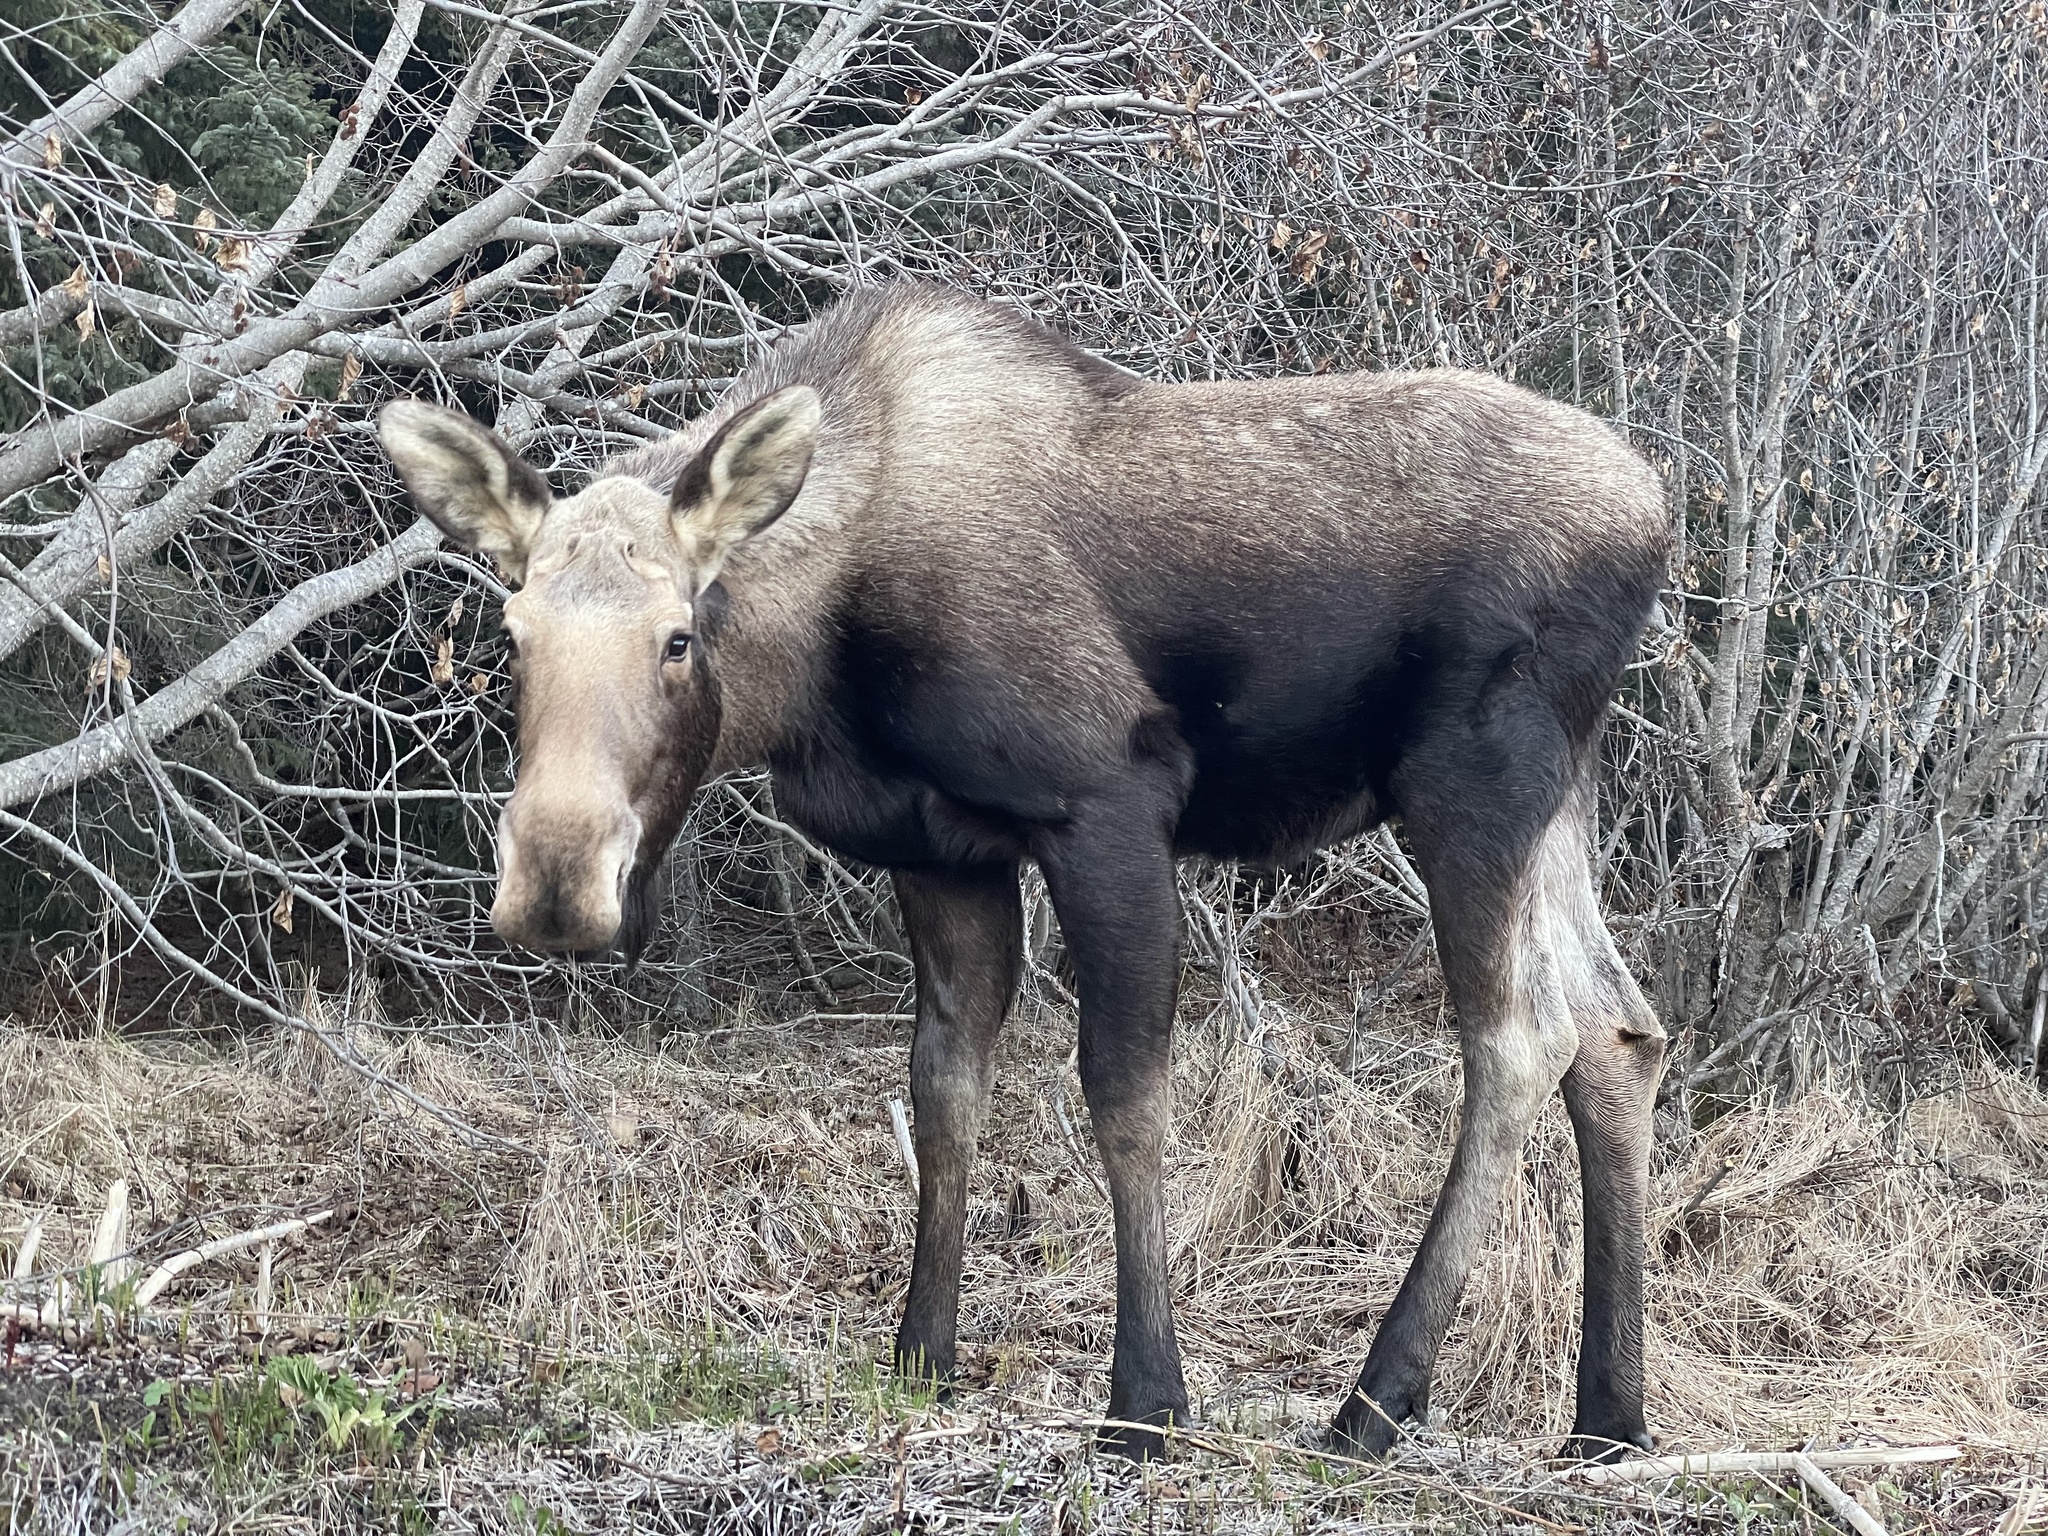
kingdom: Animalia
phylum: Chordata
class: Mammalia
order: Artiodactyla
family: Cervidae
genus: Alces
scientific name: Alces americanus
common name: Moose
